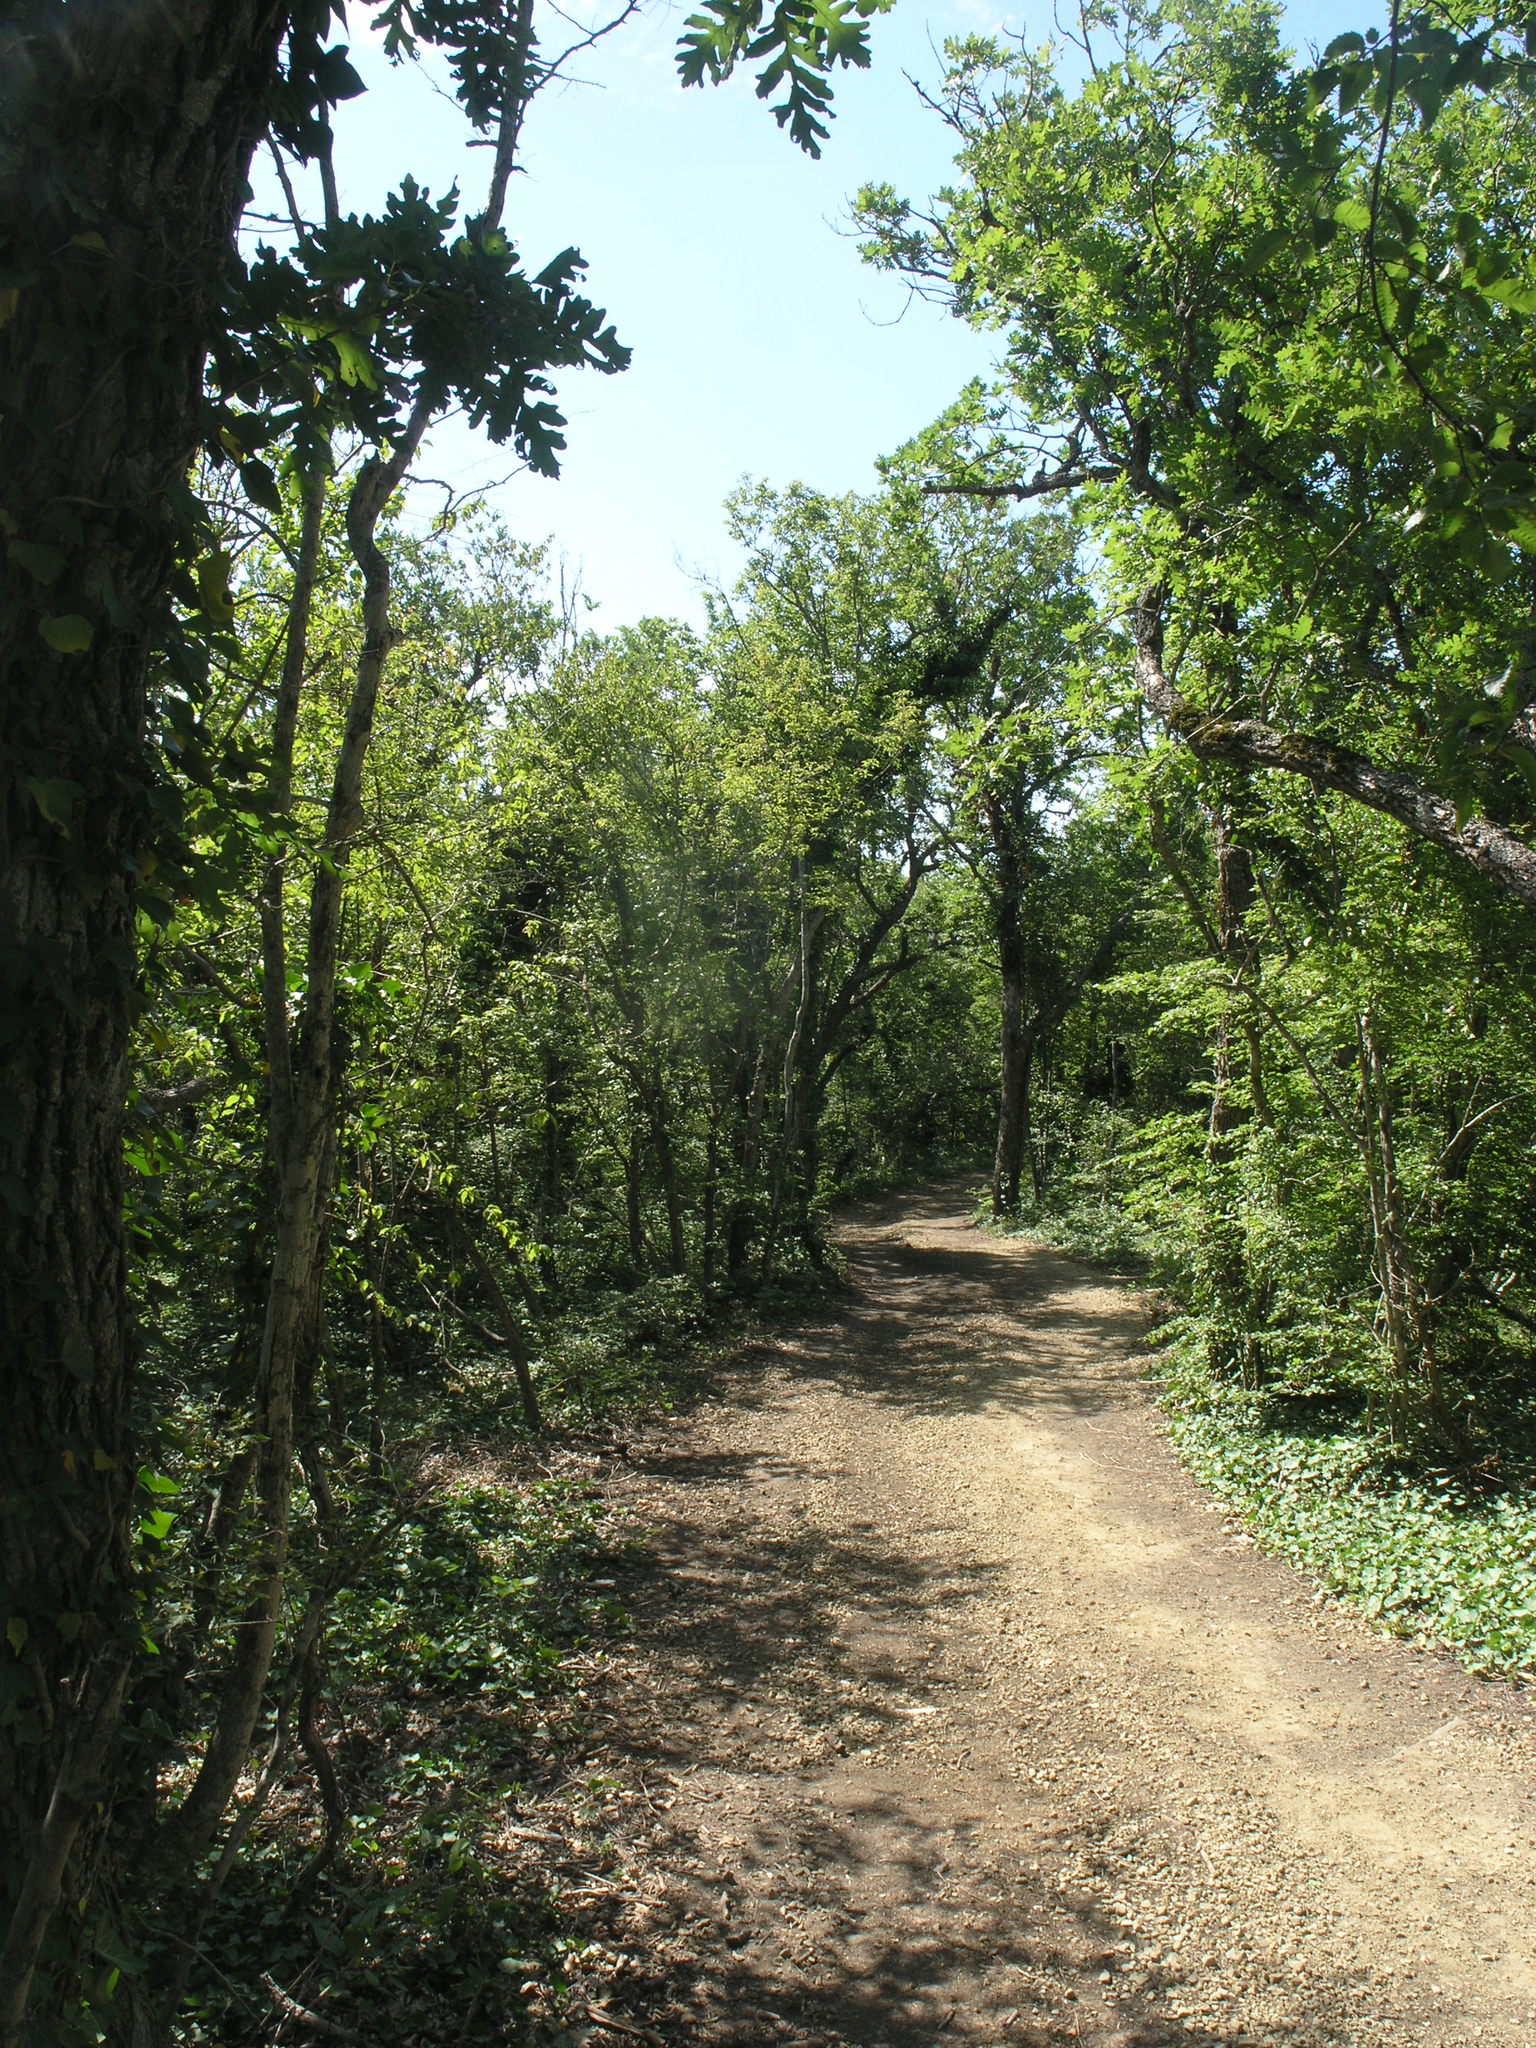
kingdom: Plantae
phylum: Tracheophyta
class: Magnoliopsida
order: Fagales
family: Fagaceae
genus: Quercus
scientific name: Quercus pubescens
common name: Downy oak
